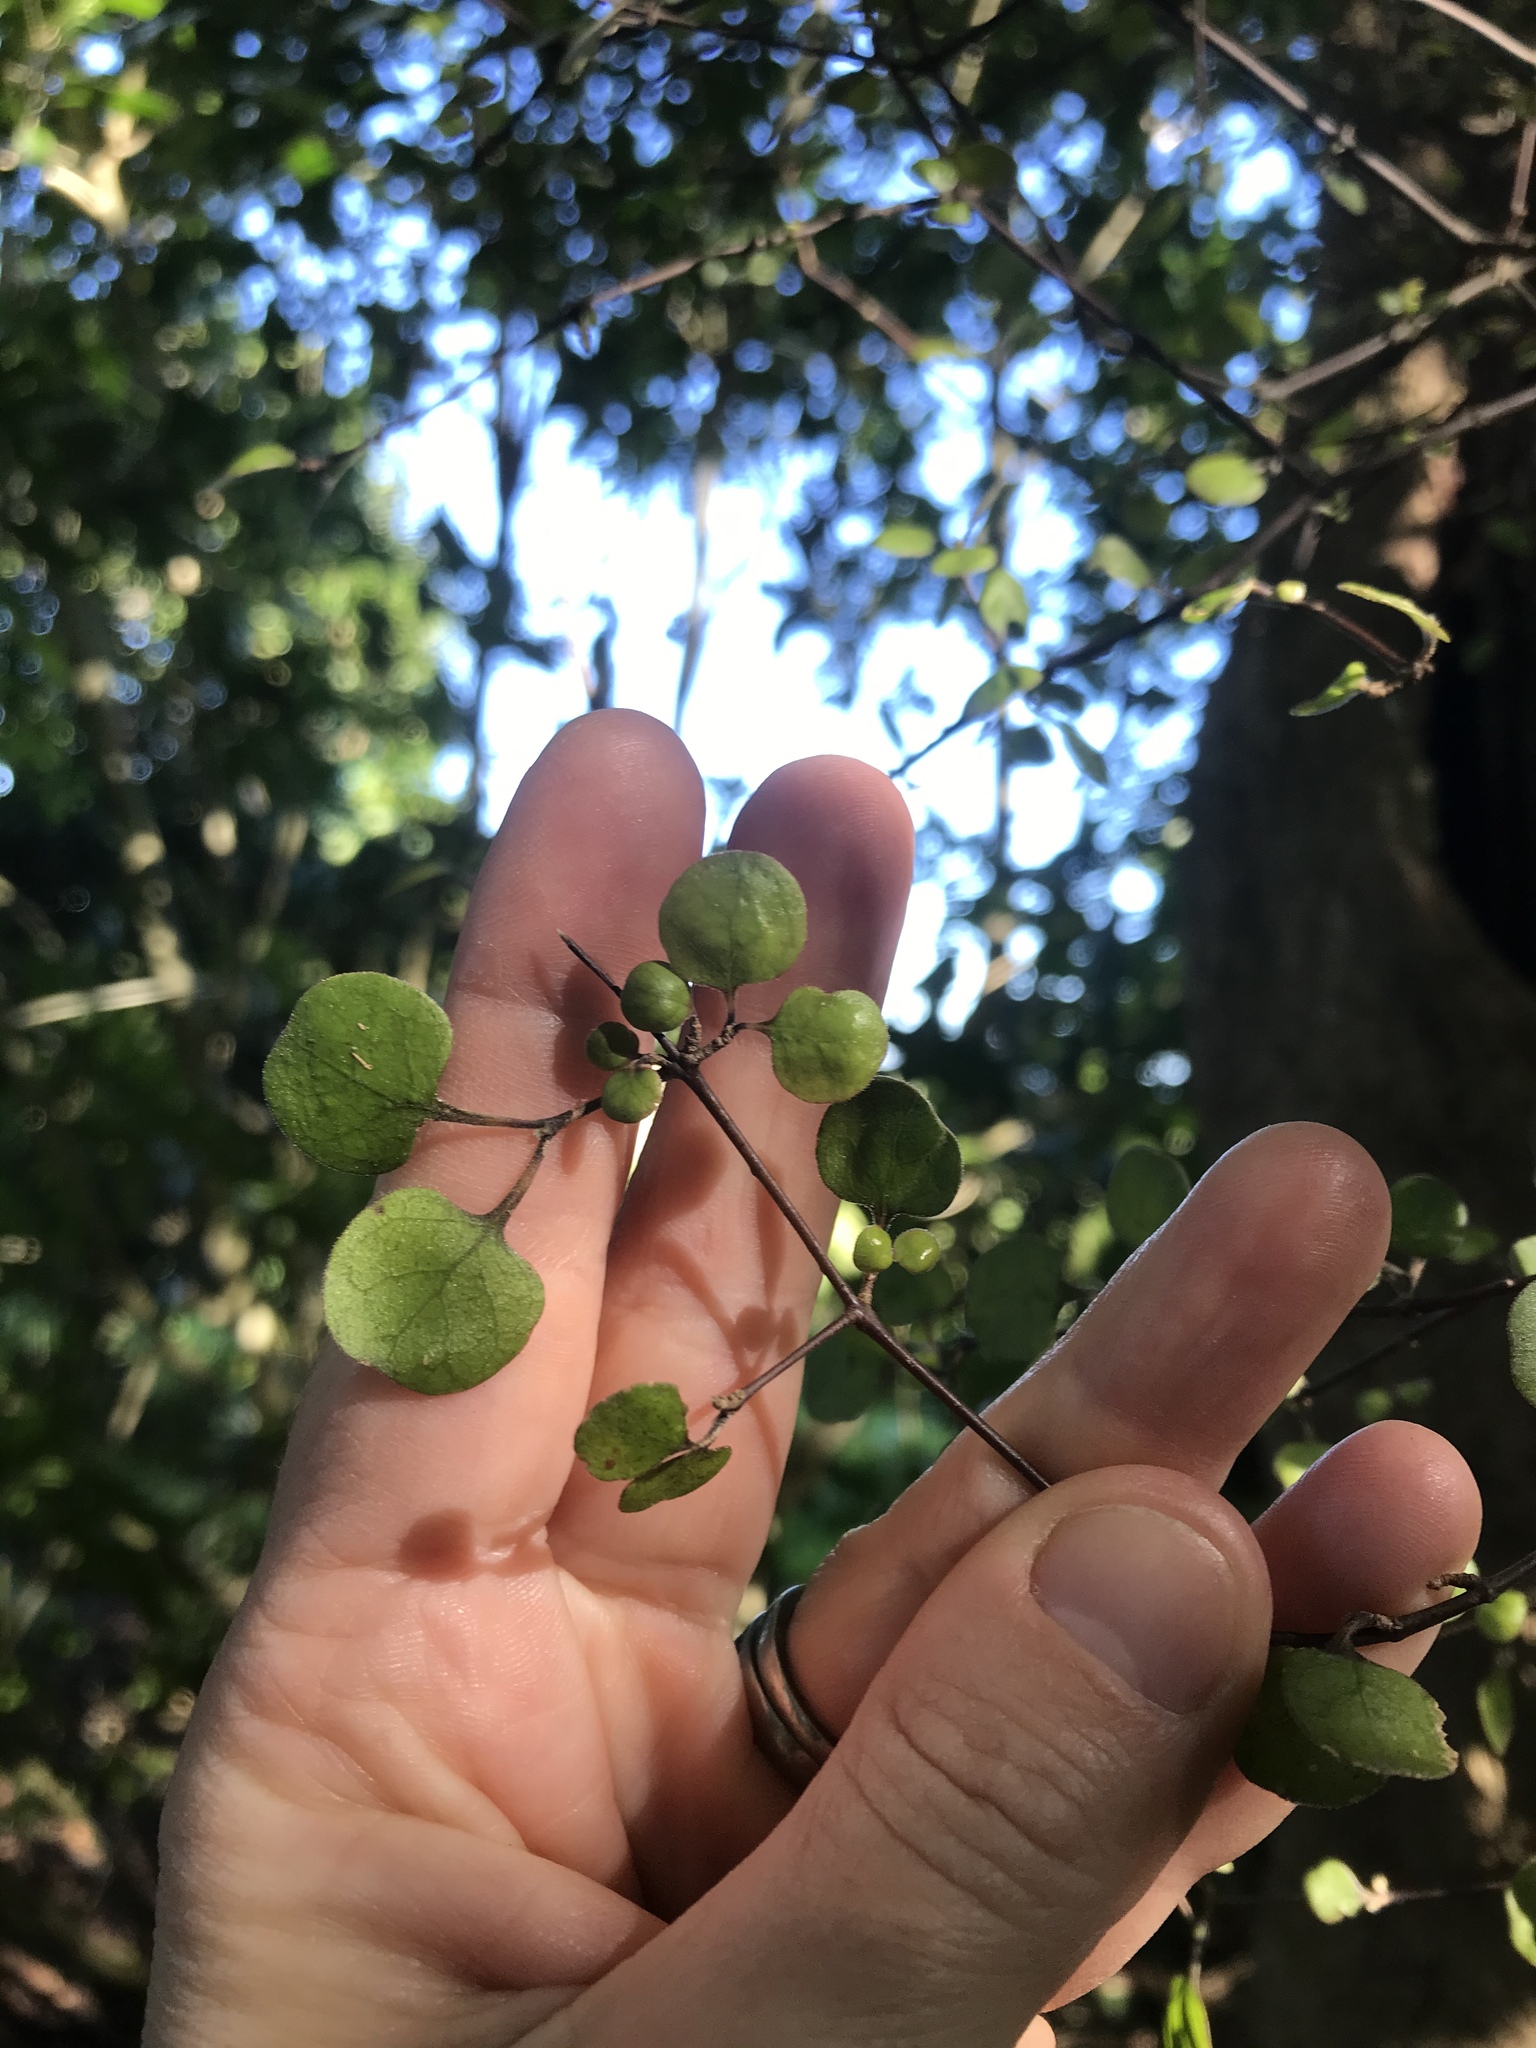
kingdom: Plantae
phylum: Tracheophyta
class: Magnoliopsida
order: Gentianales
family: Rubiaceae
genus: Coprosma
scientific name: Coprosma rotundifolia
